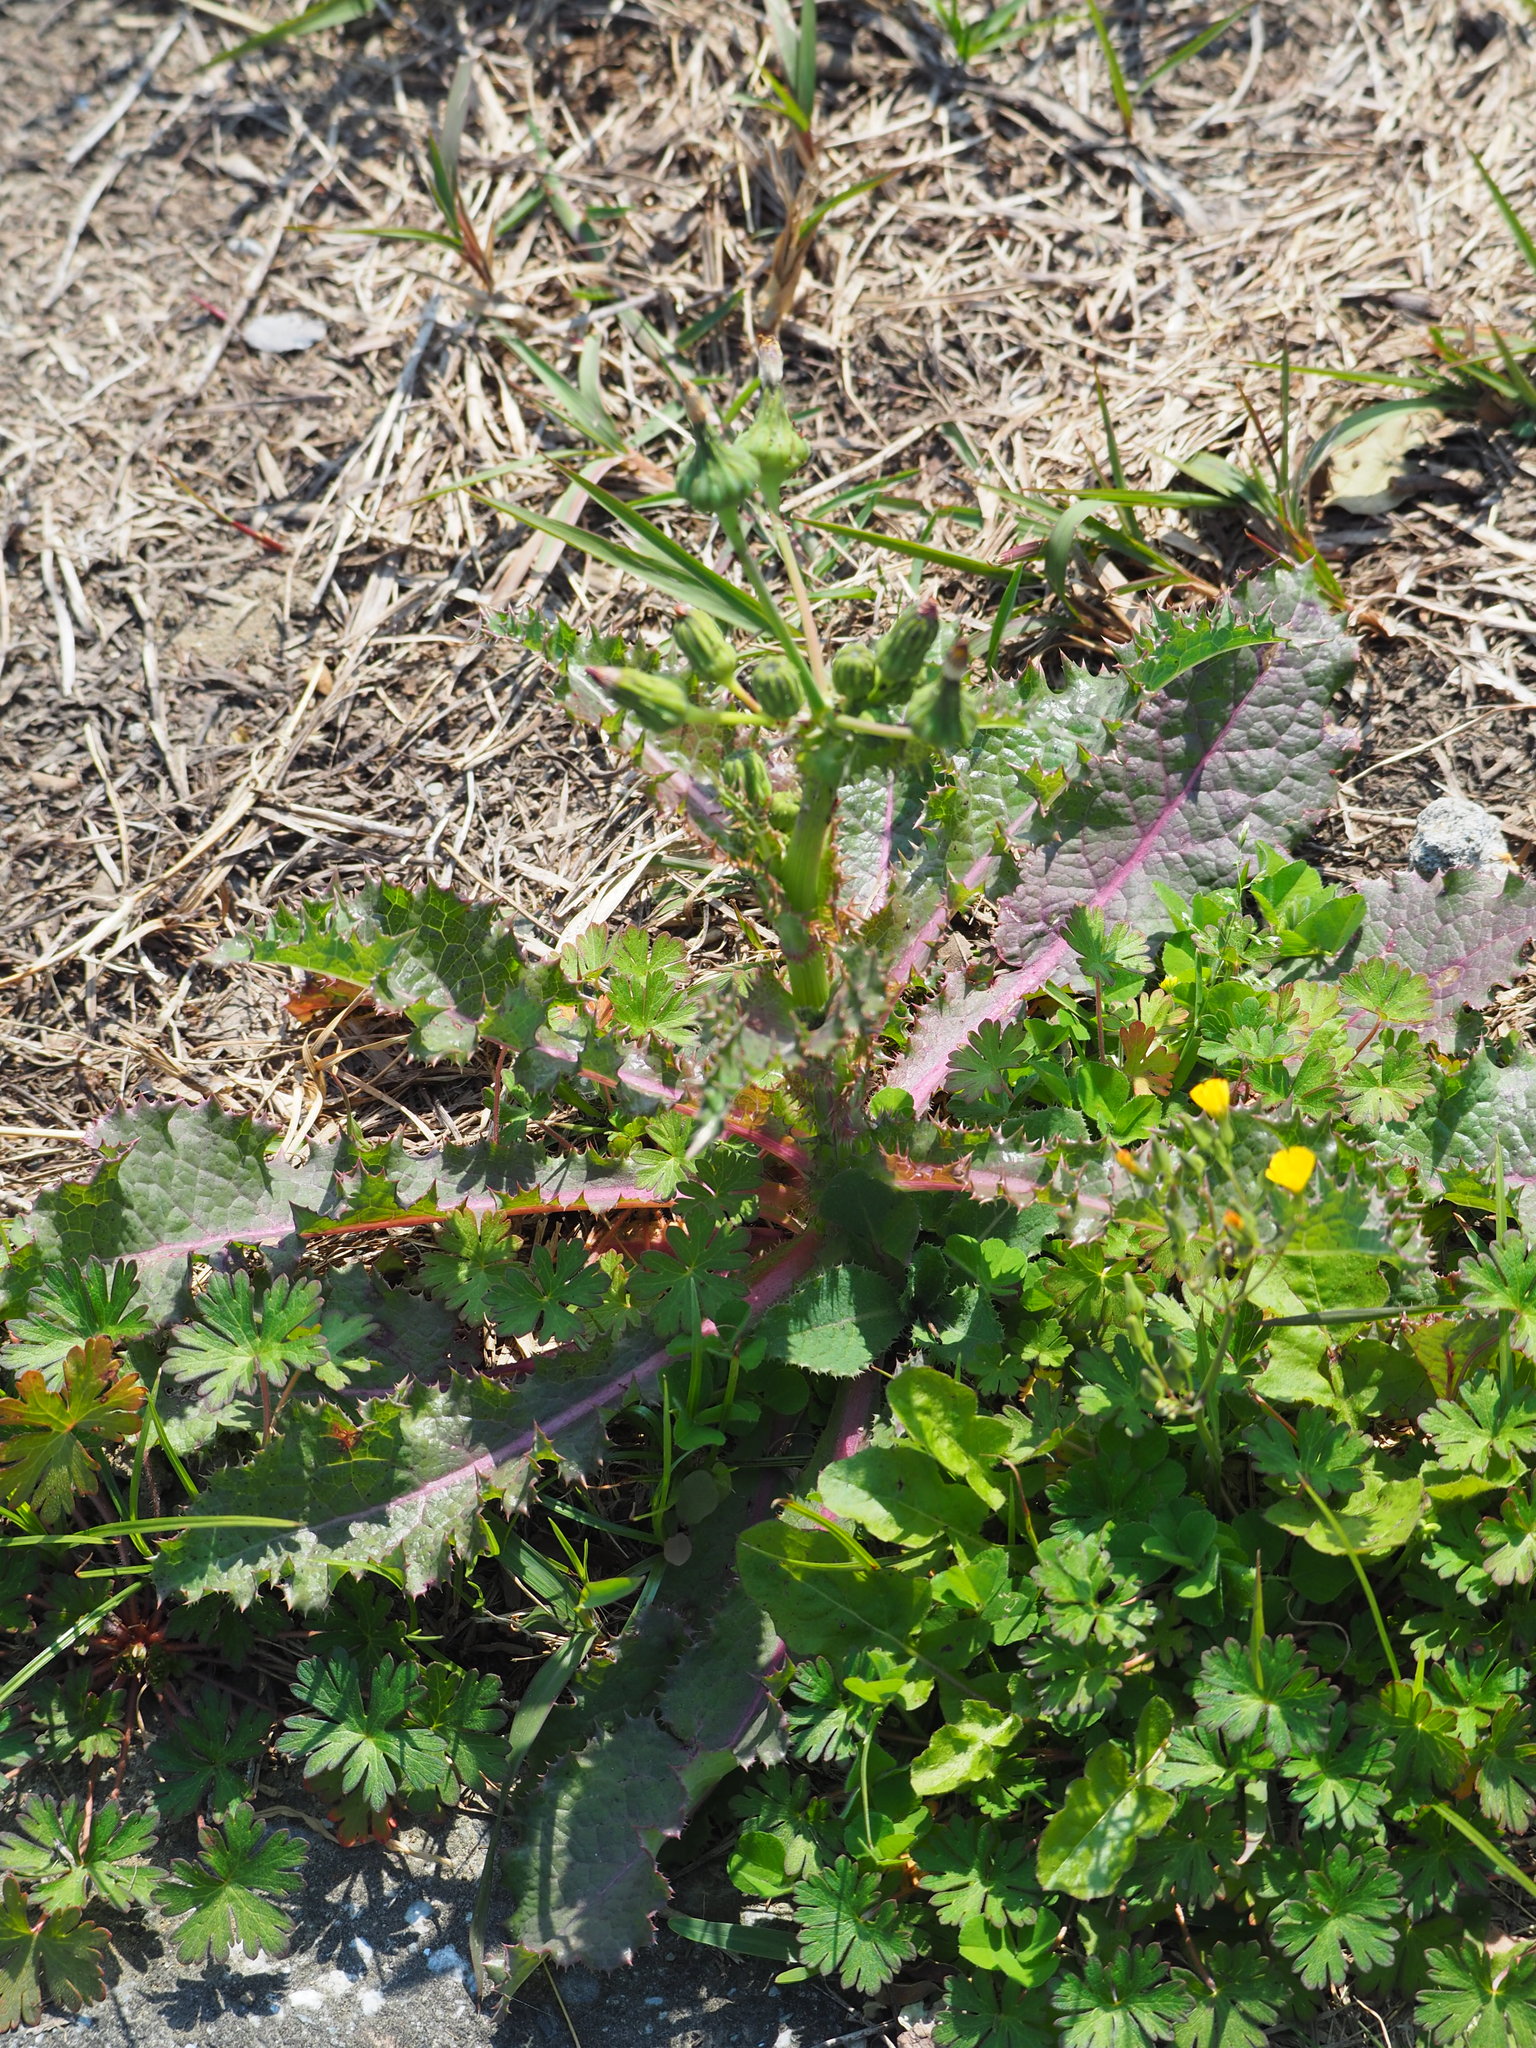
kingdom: Plantae
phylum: Tracheophyta
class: Magnoliopsida
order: Asterales
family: Asteraceae
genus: Sonchus
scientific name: Sonchus asper
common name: Prickly sow-thistle
